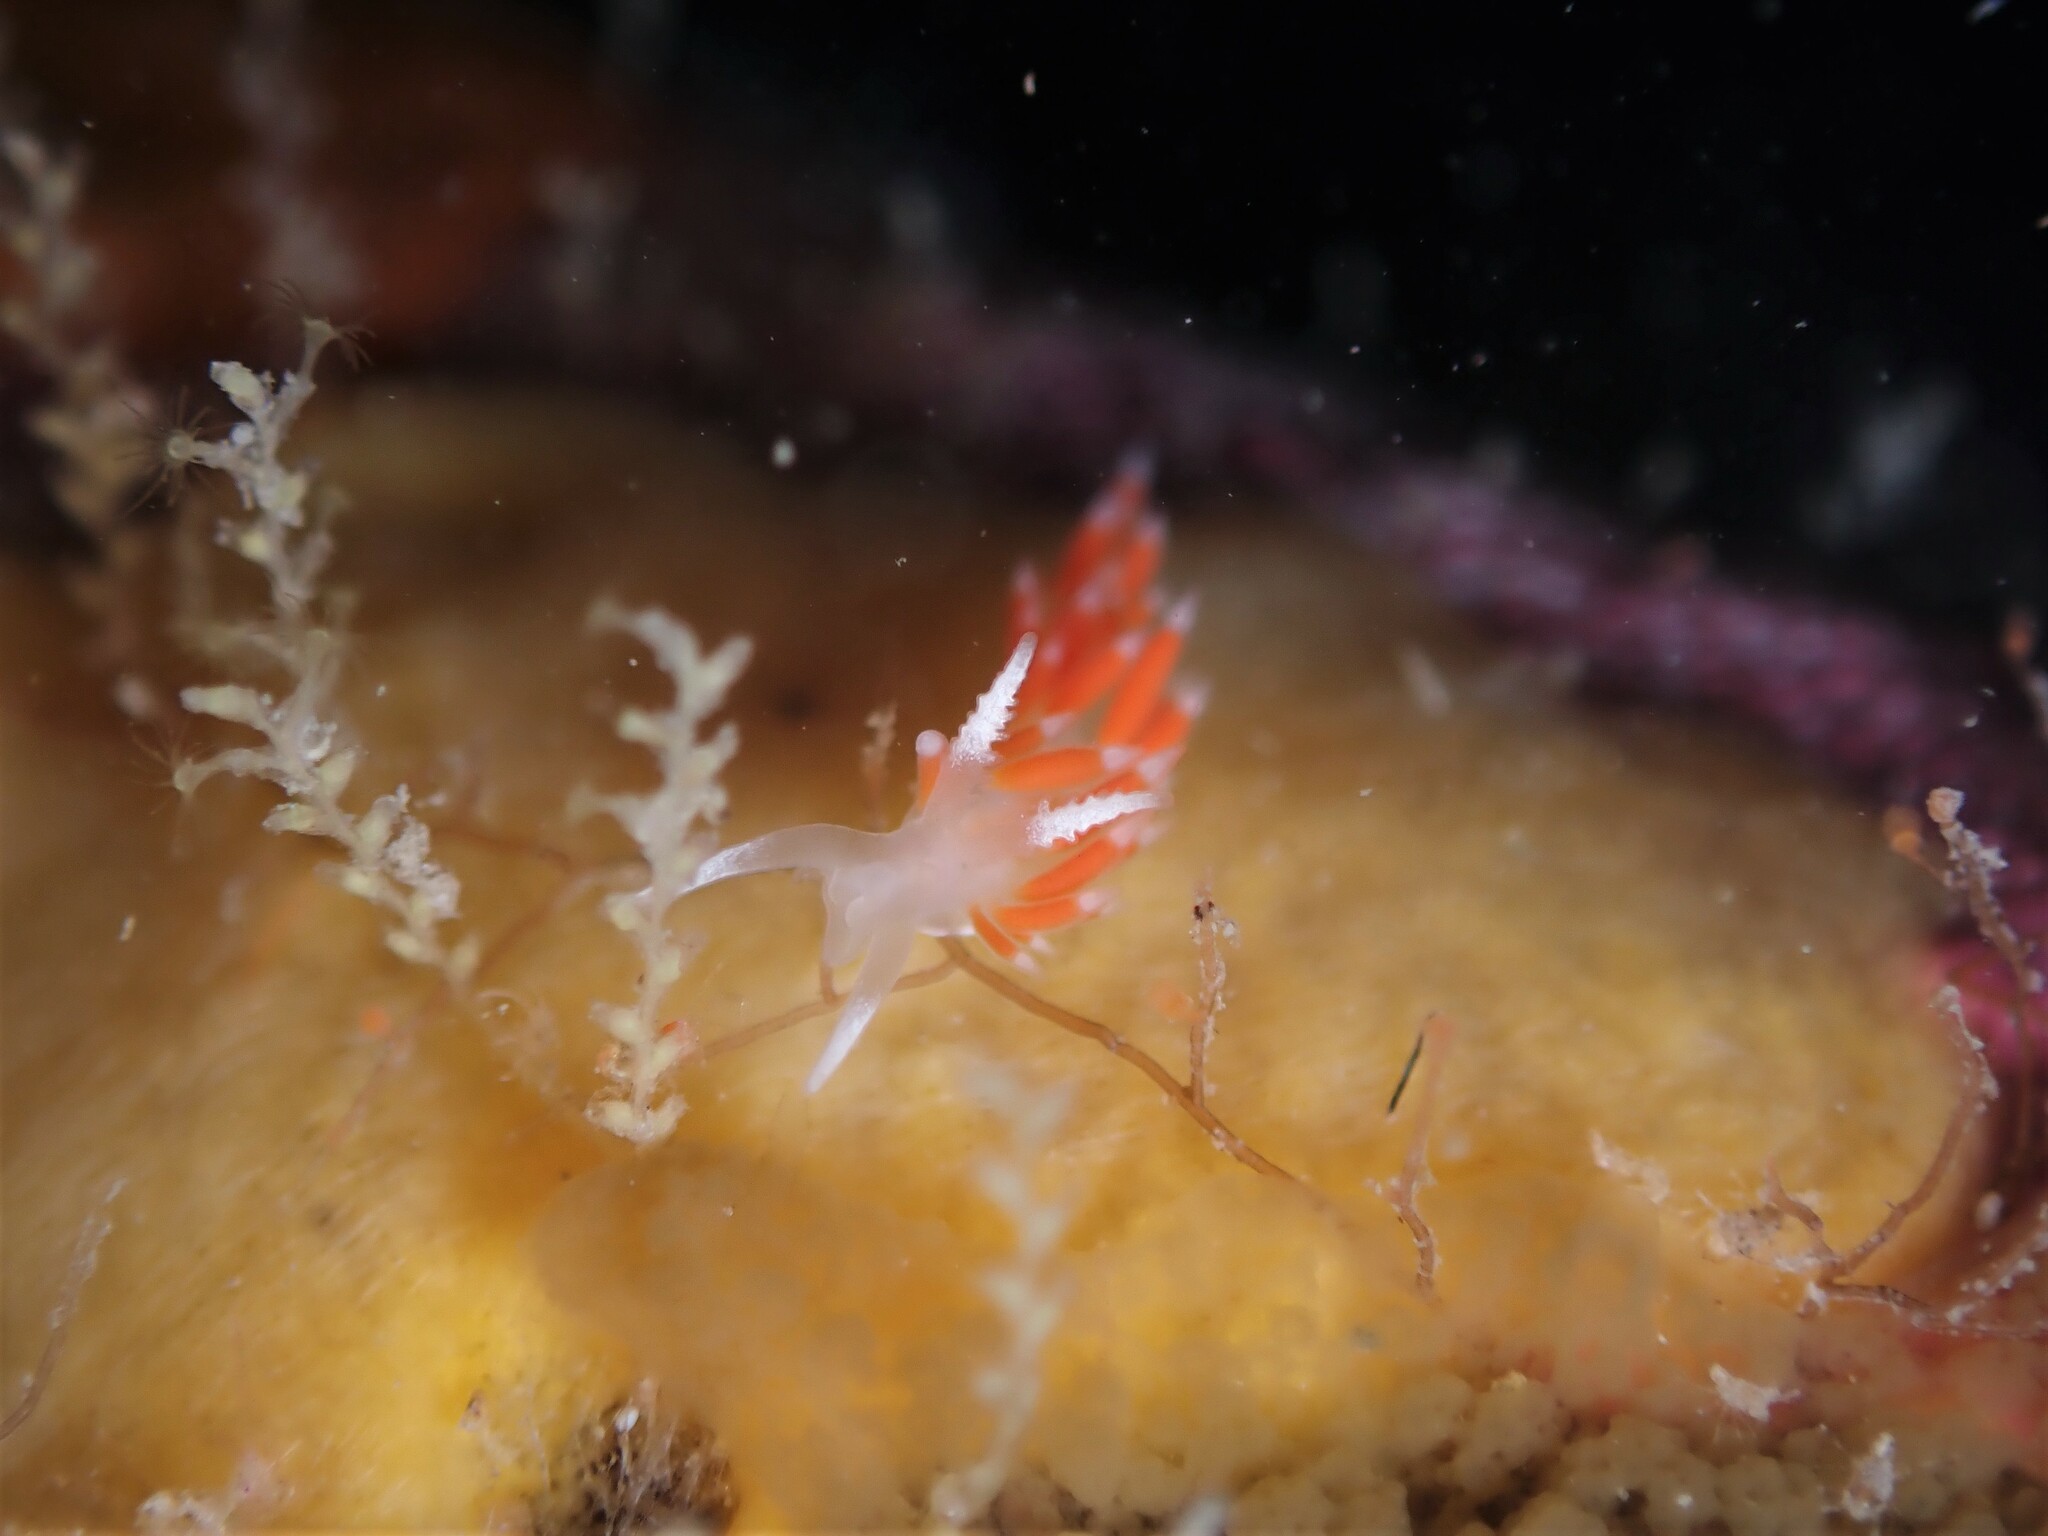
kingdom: Animalia
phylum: Mollusca
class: Gastropoda
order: Nudibranchia
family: Flabellinidae
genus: Coryphellina
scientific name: Coryphellina albomarginata
